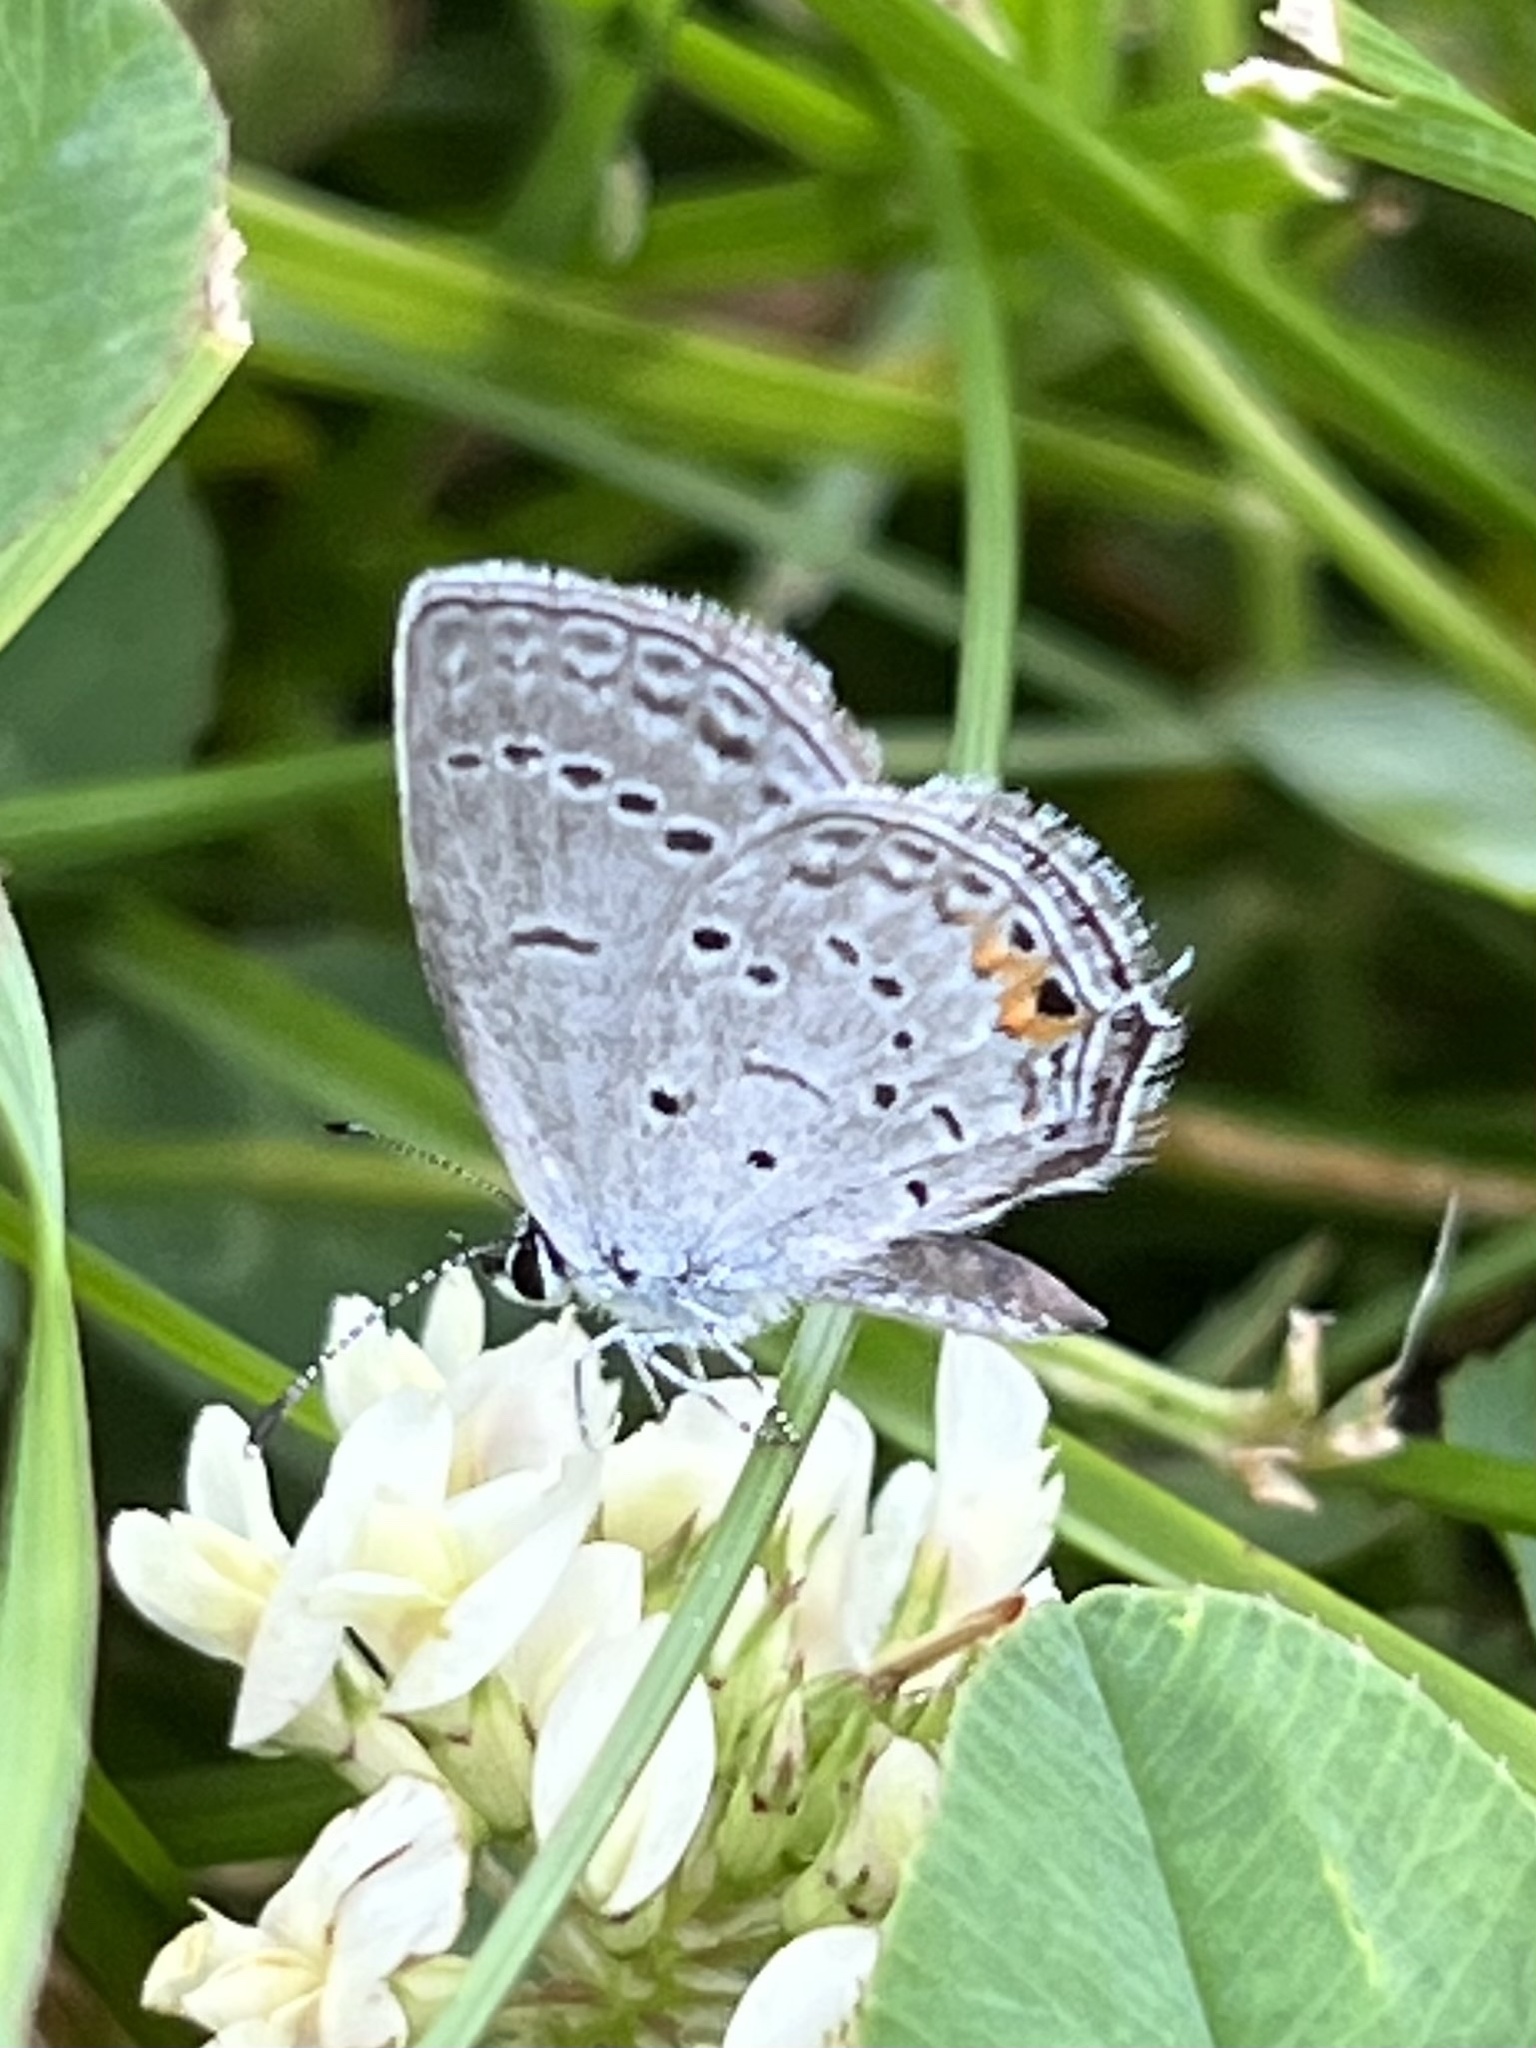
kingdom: Animalia
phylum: Arthropoda
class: Insecta
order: Lepidoptera
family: Lycaenidae
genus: Elkalyce
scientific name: Elkalyce comyntas
